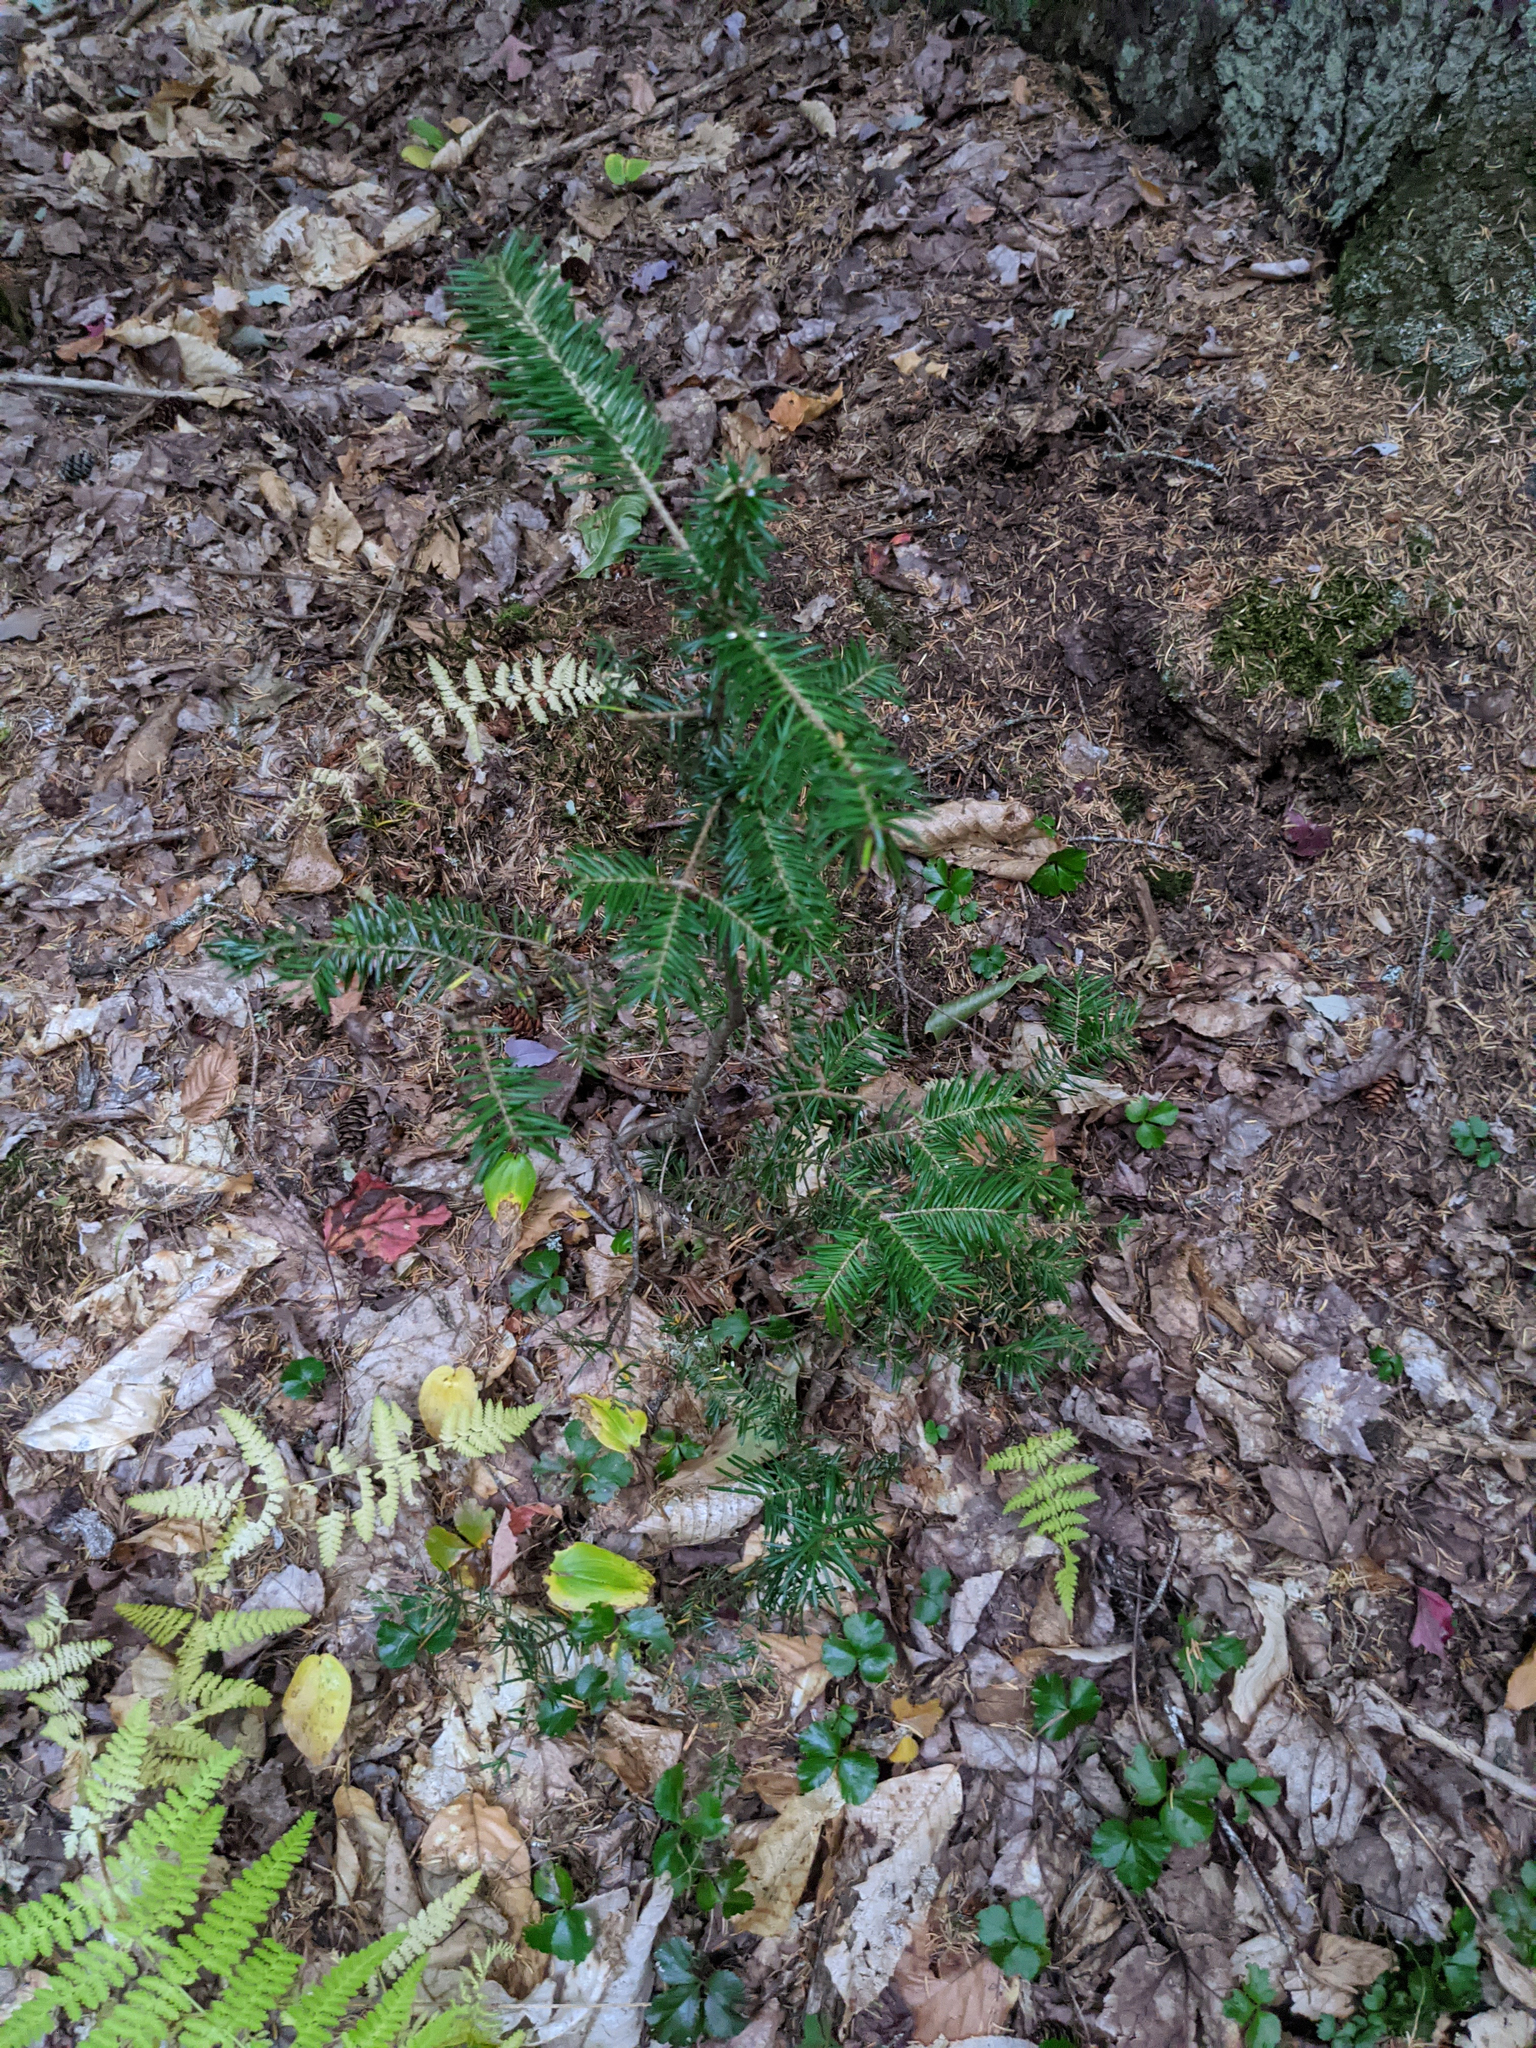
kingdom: Plantae
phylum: Tracheophyta
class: Pinopsida
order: Pinales
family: Pinaceae
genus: Abies
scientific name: Abies balsamea
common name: Balsam fir
